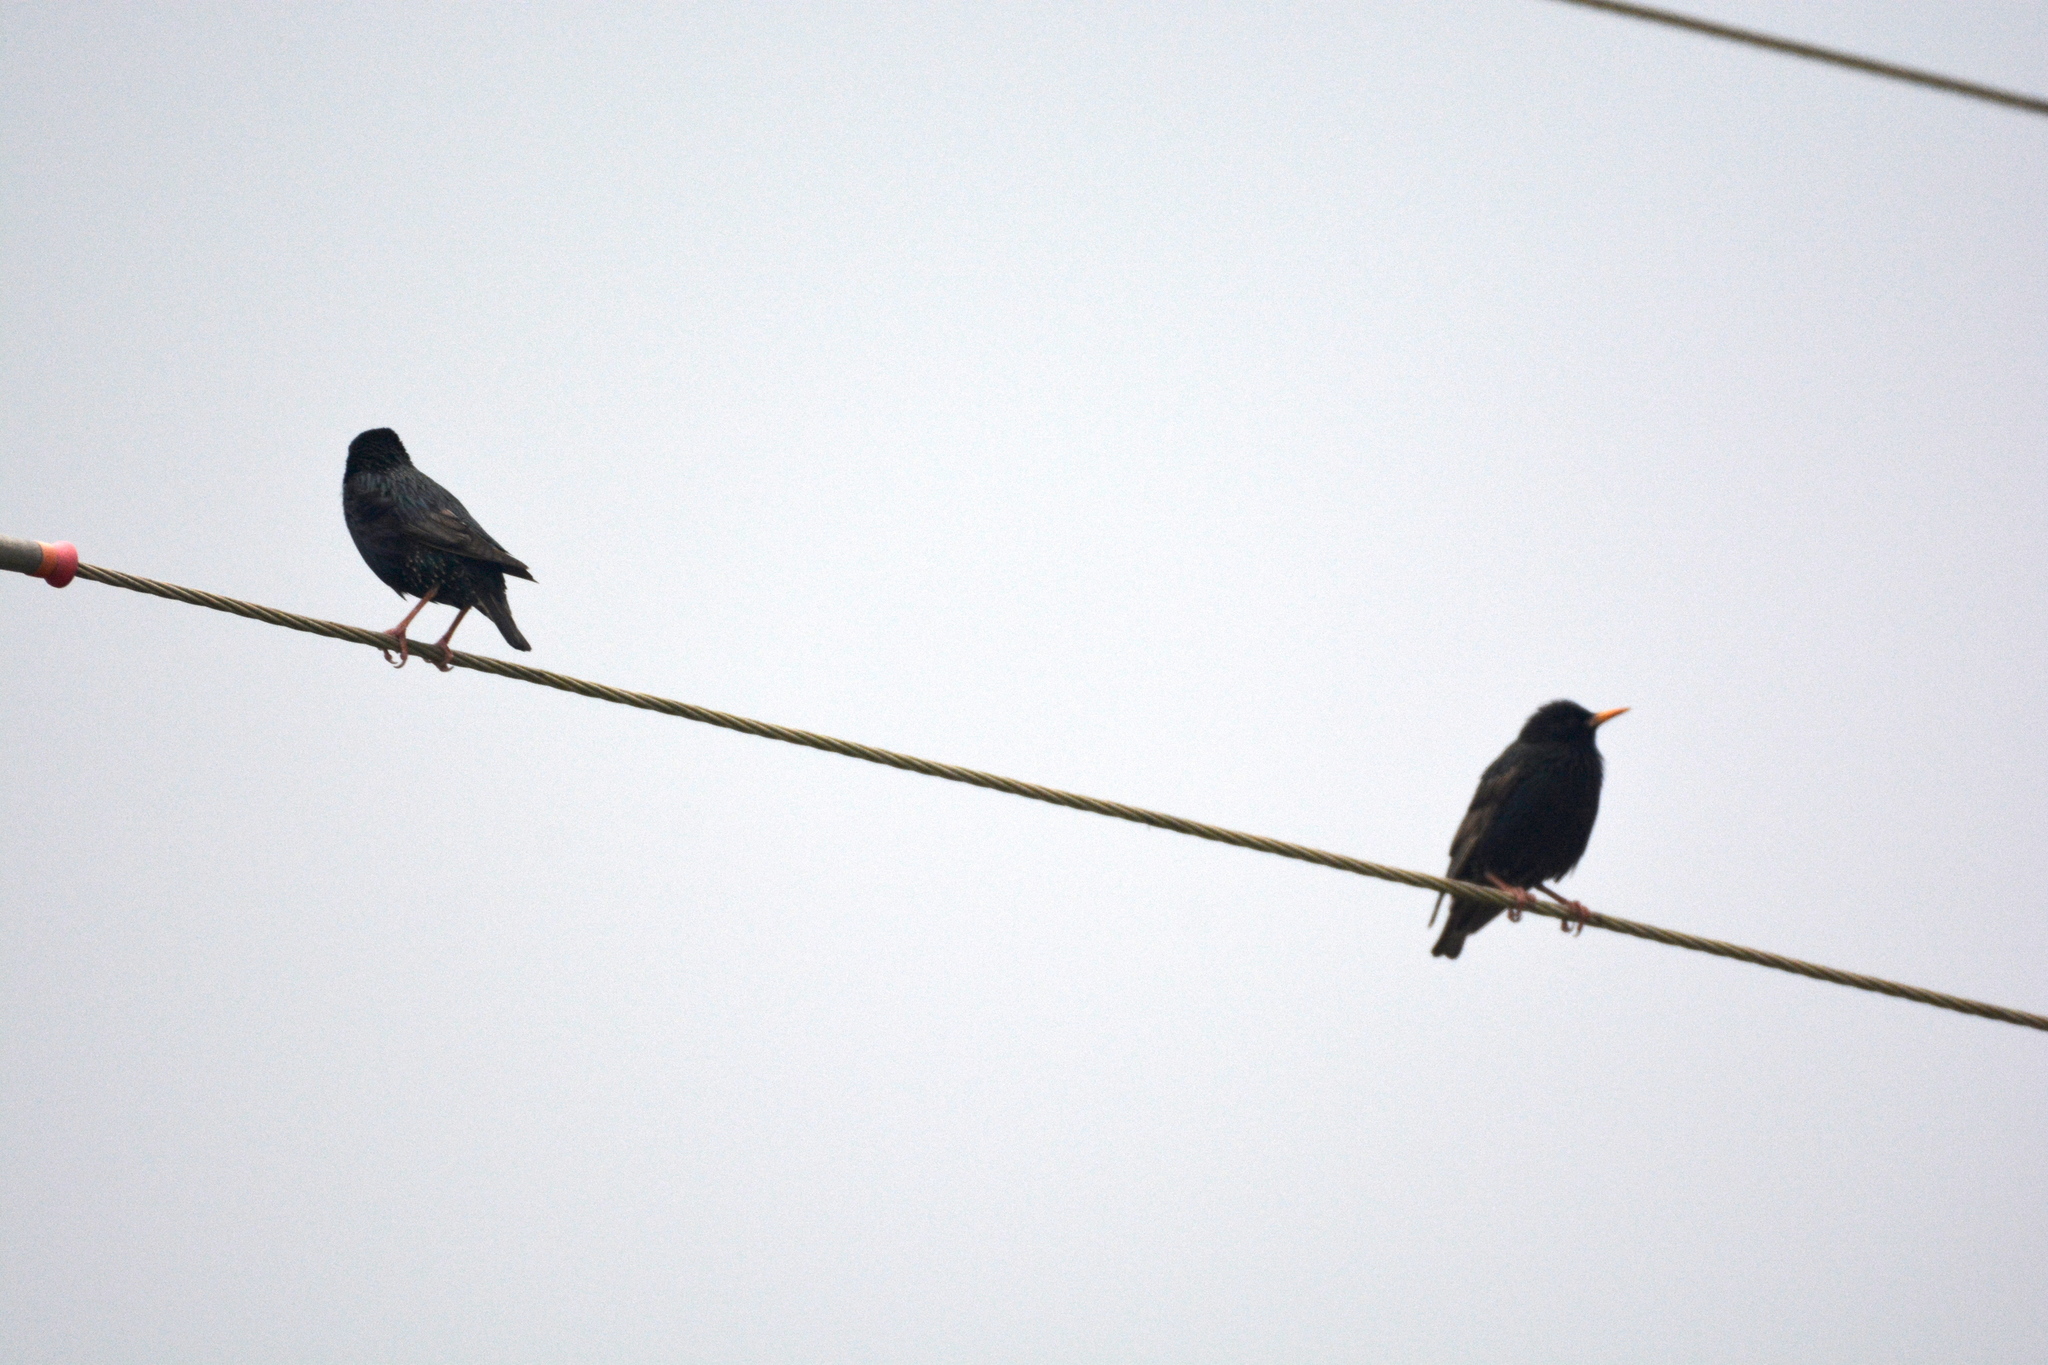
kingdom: Animalia
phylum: Chordata
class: Aves
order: Passeriformes
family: Sturnidae
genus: Sturnus
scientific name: Sturnus vulgaris
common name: Common starling
